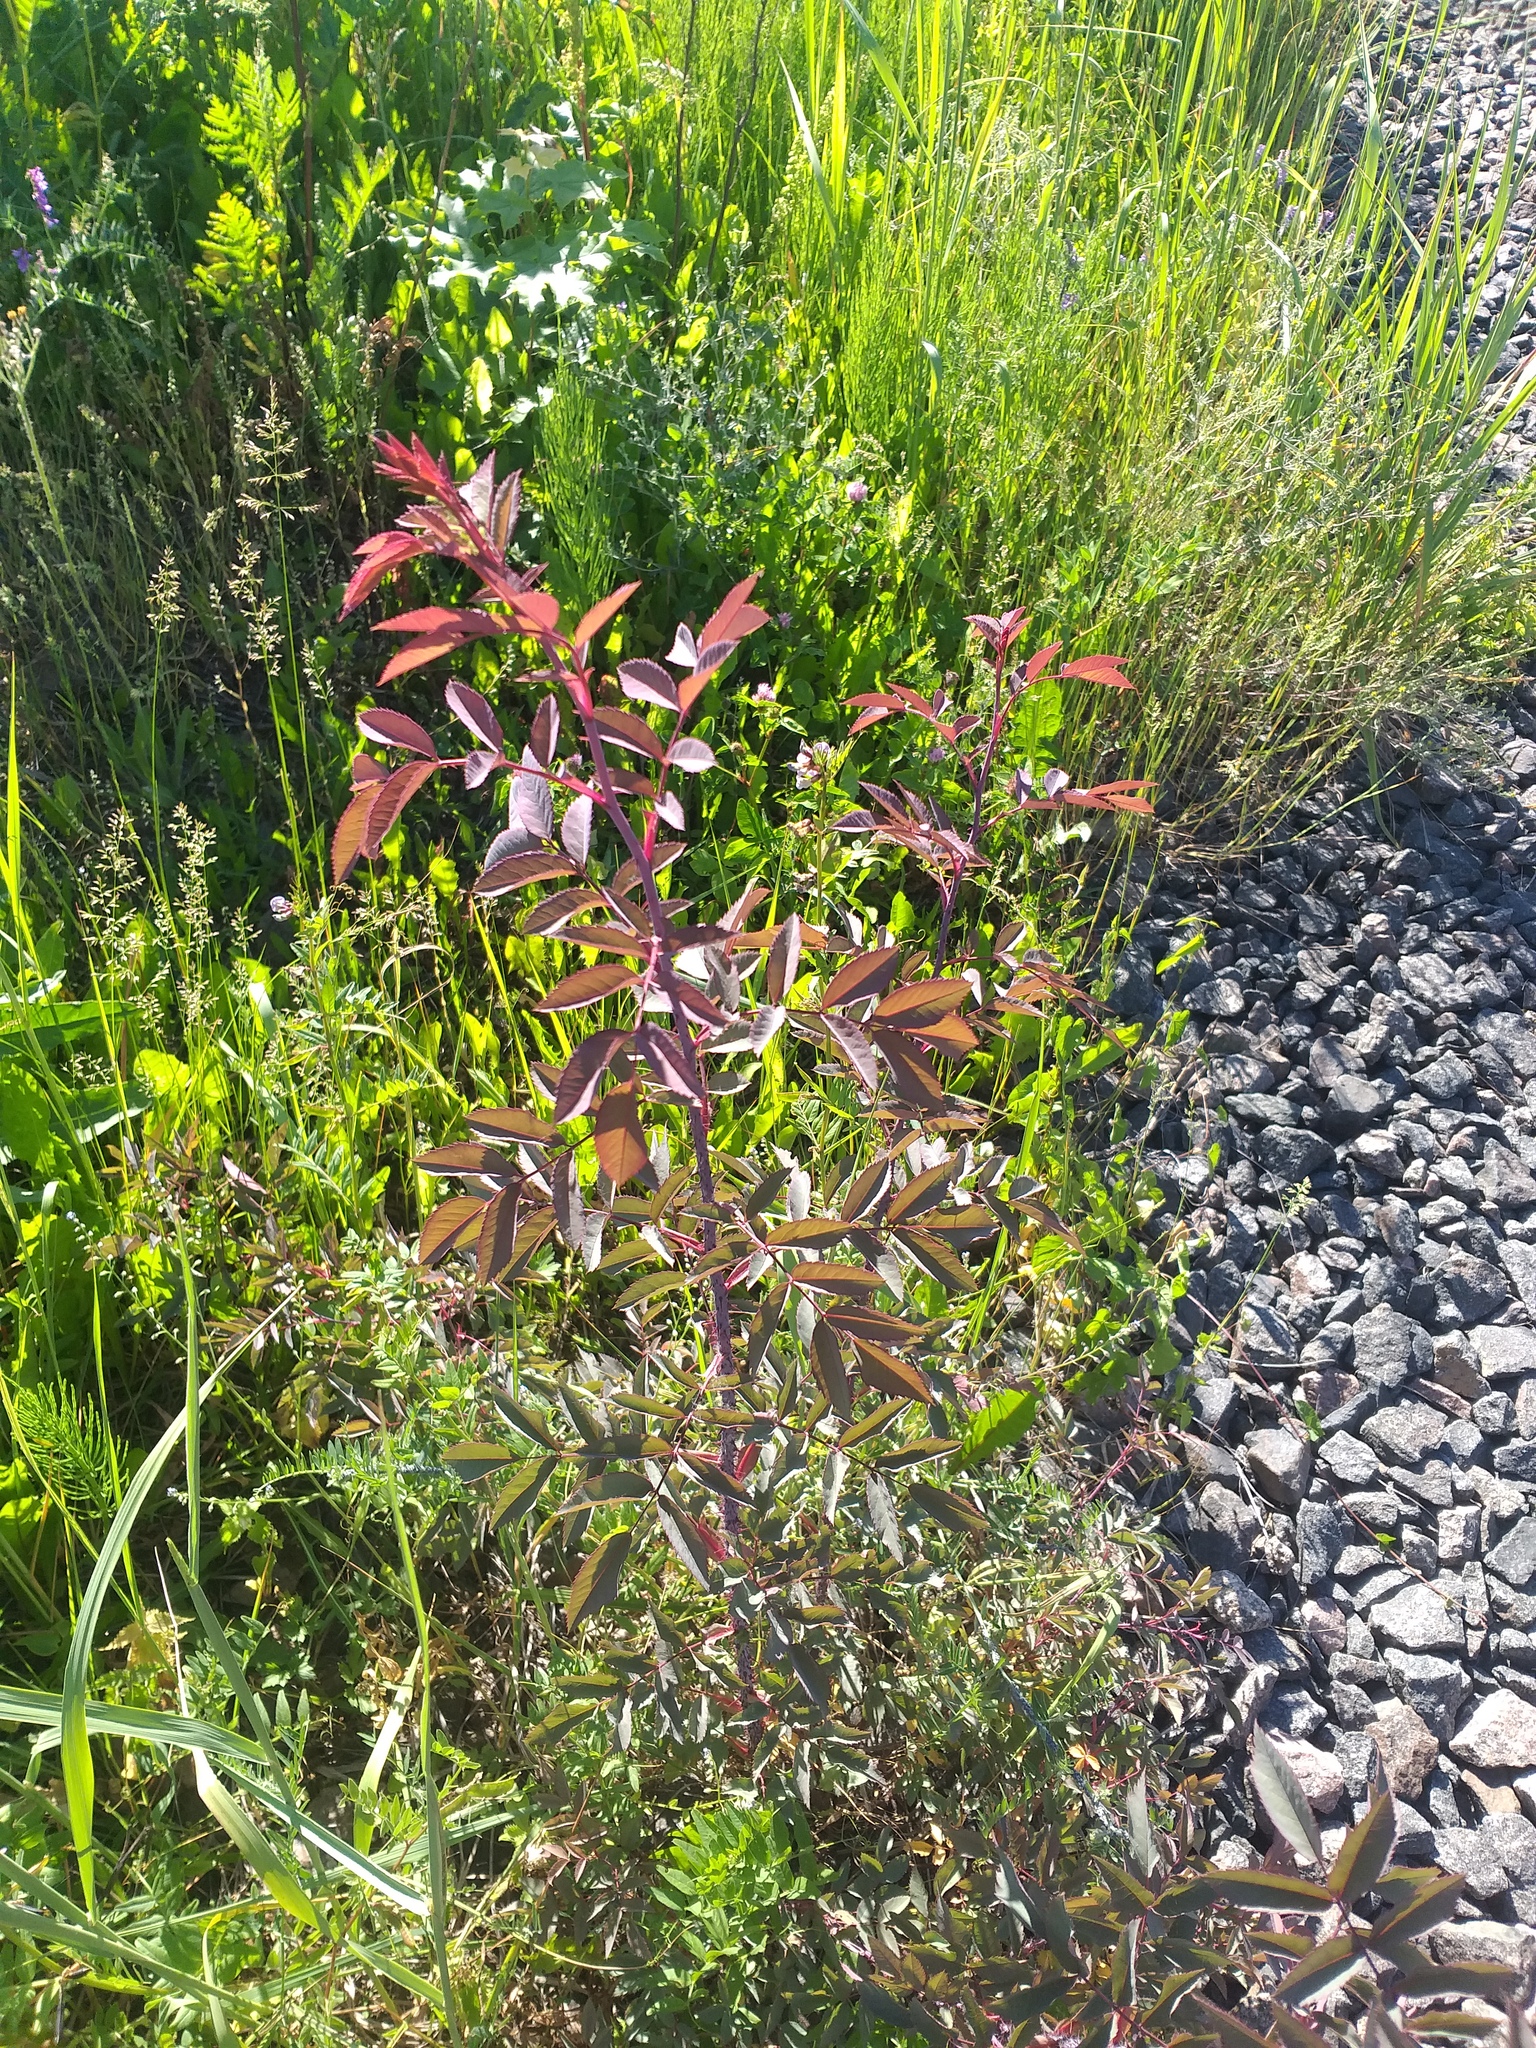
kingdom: Plantae
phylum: Tracheophyta
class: Magnoliopsida
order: Rosales
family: Rosaceae
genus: Rosa
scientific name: Rosa glauca
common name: Redleaf rose
